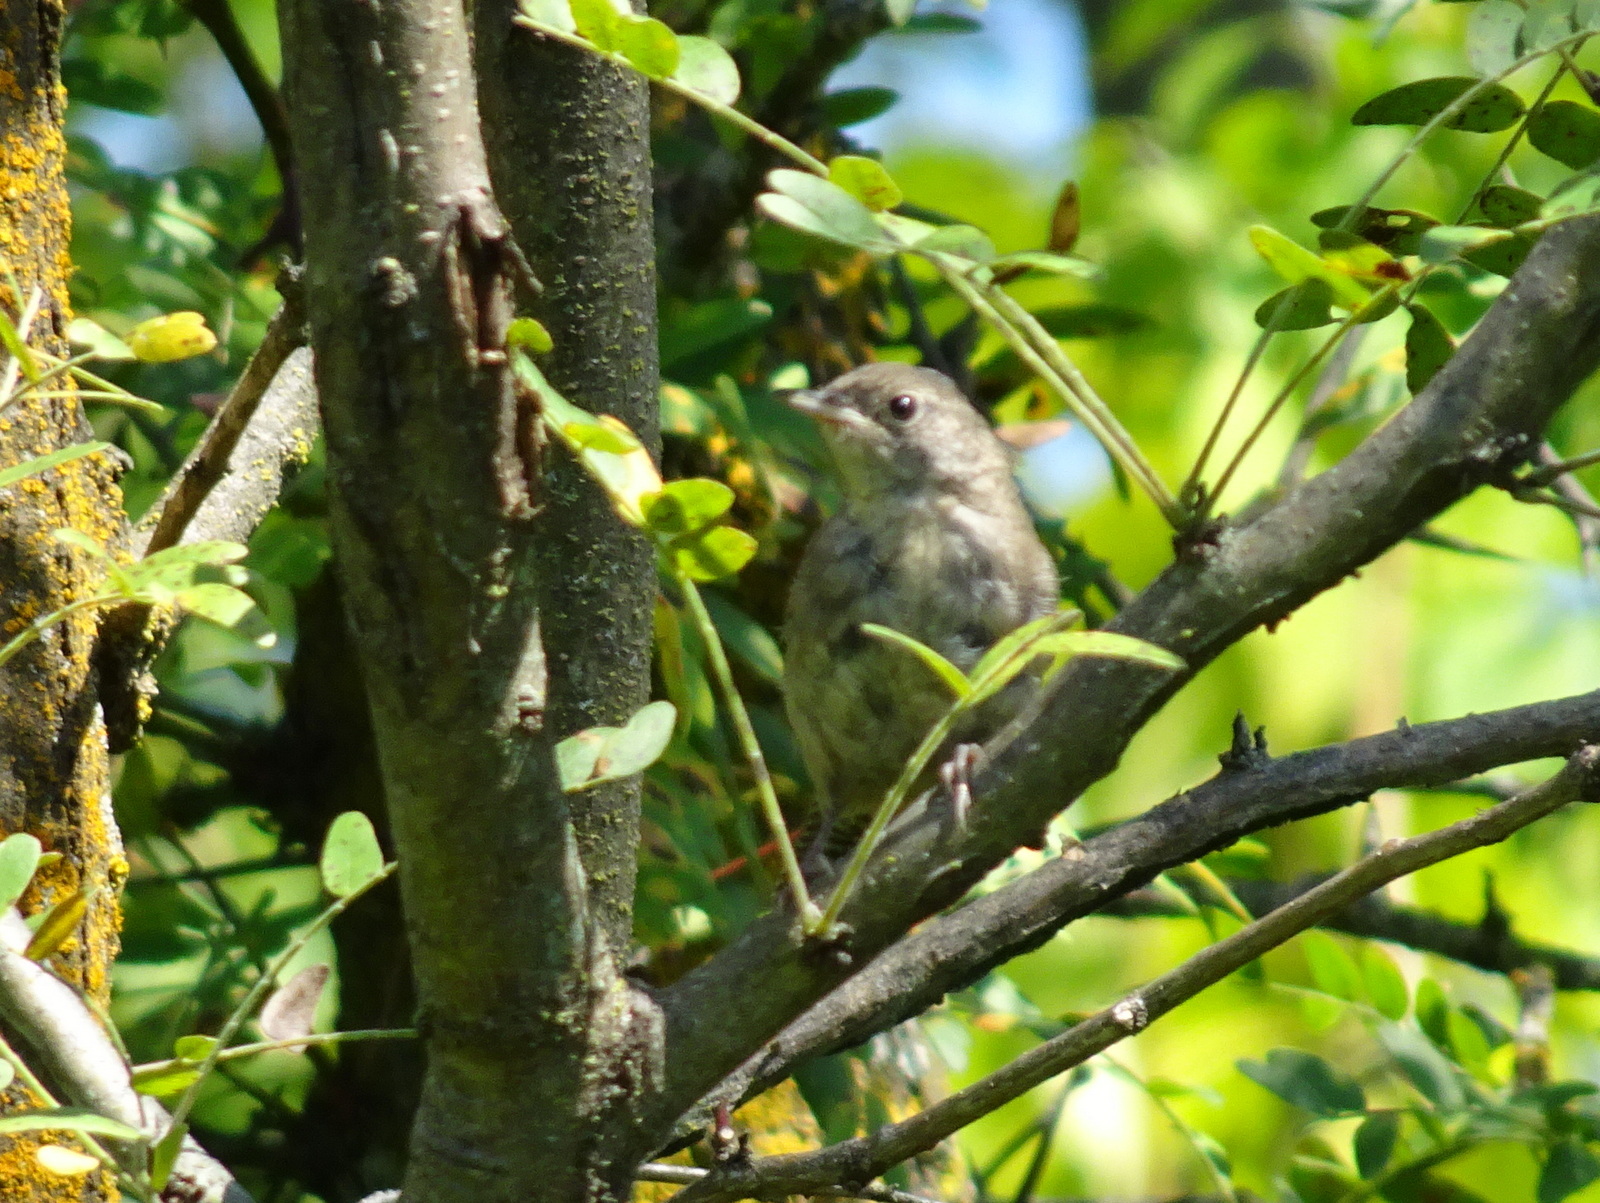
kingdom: Animalia
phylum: Chordata
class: Aves
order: Passeriformes
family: Troglodytidae
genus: Troglodytes
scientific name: Troglodytes aedon
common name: House wren
